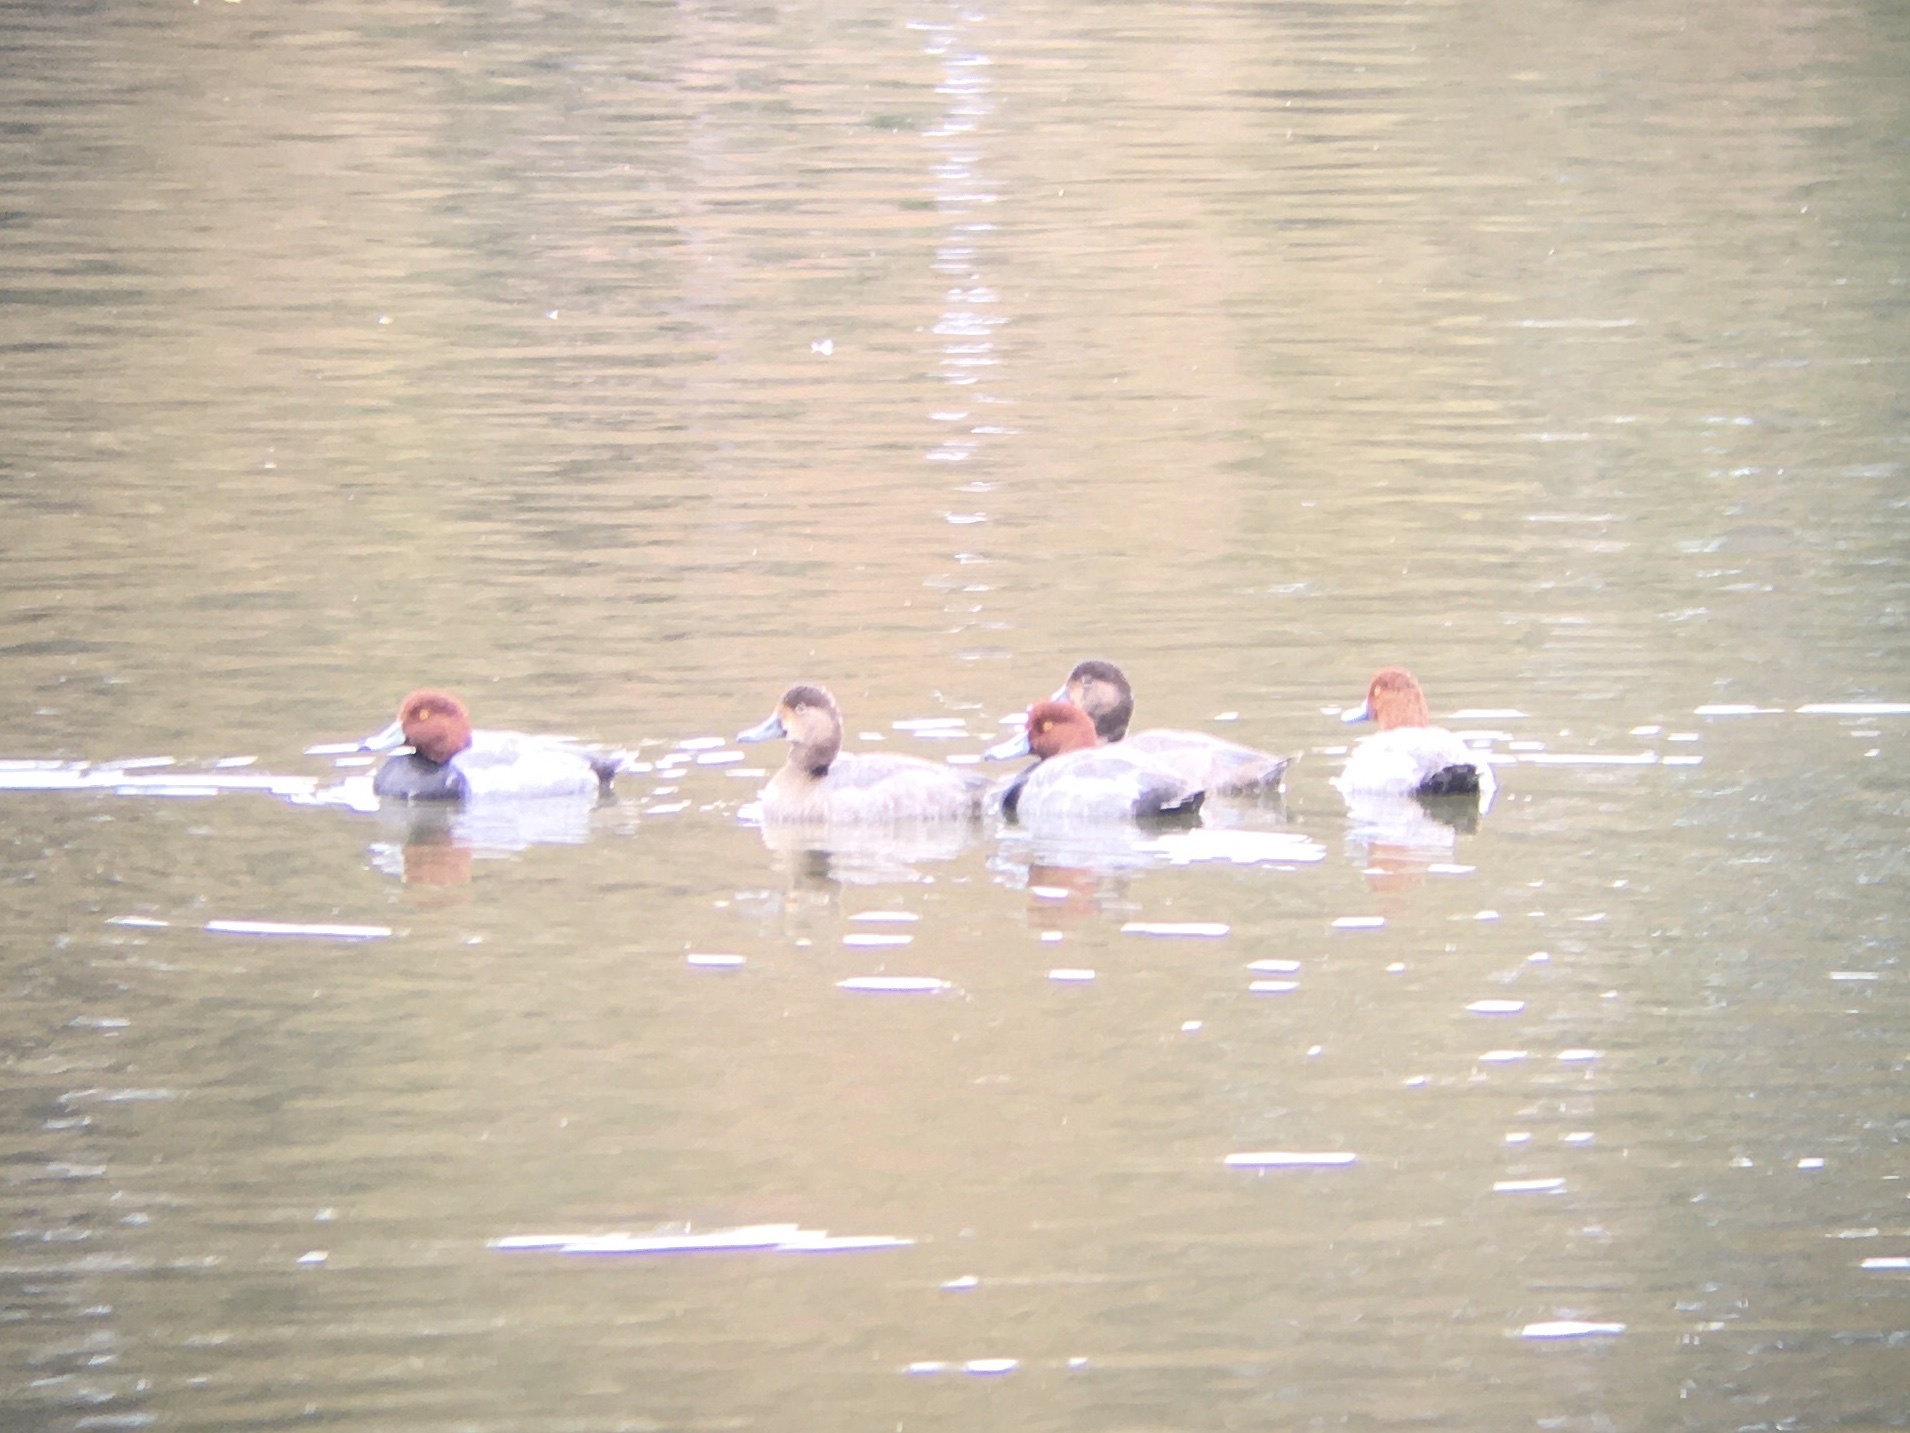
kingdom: Animalia
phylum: Chordata
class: Aves
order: Anseriformes
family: Anatidae
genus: Aythya
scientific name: Aythya americana
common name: Redhead
